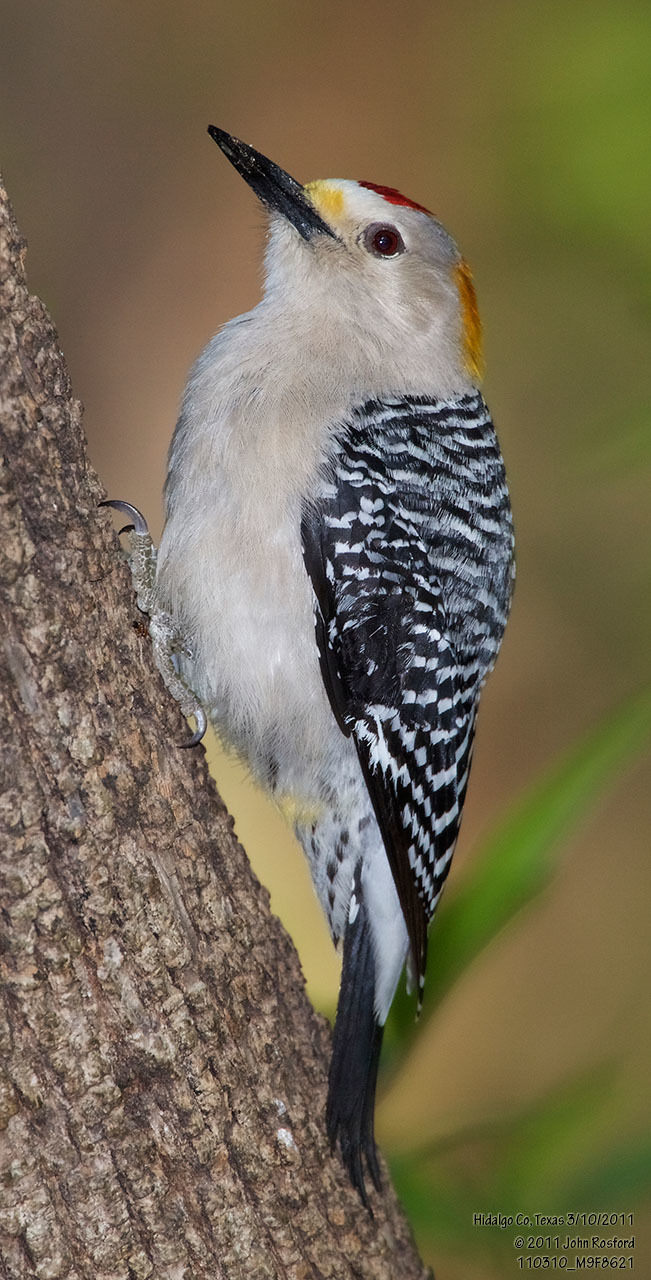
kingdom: Animalia
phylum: Chordata
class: Aves
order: Piciformes
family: Picidae
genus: Melanerpes
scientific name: Melanerpes aurifrons
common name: Golden-fronted woodpecker
